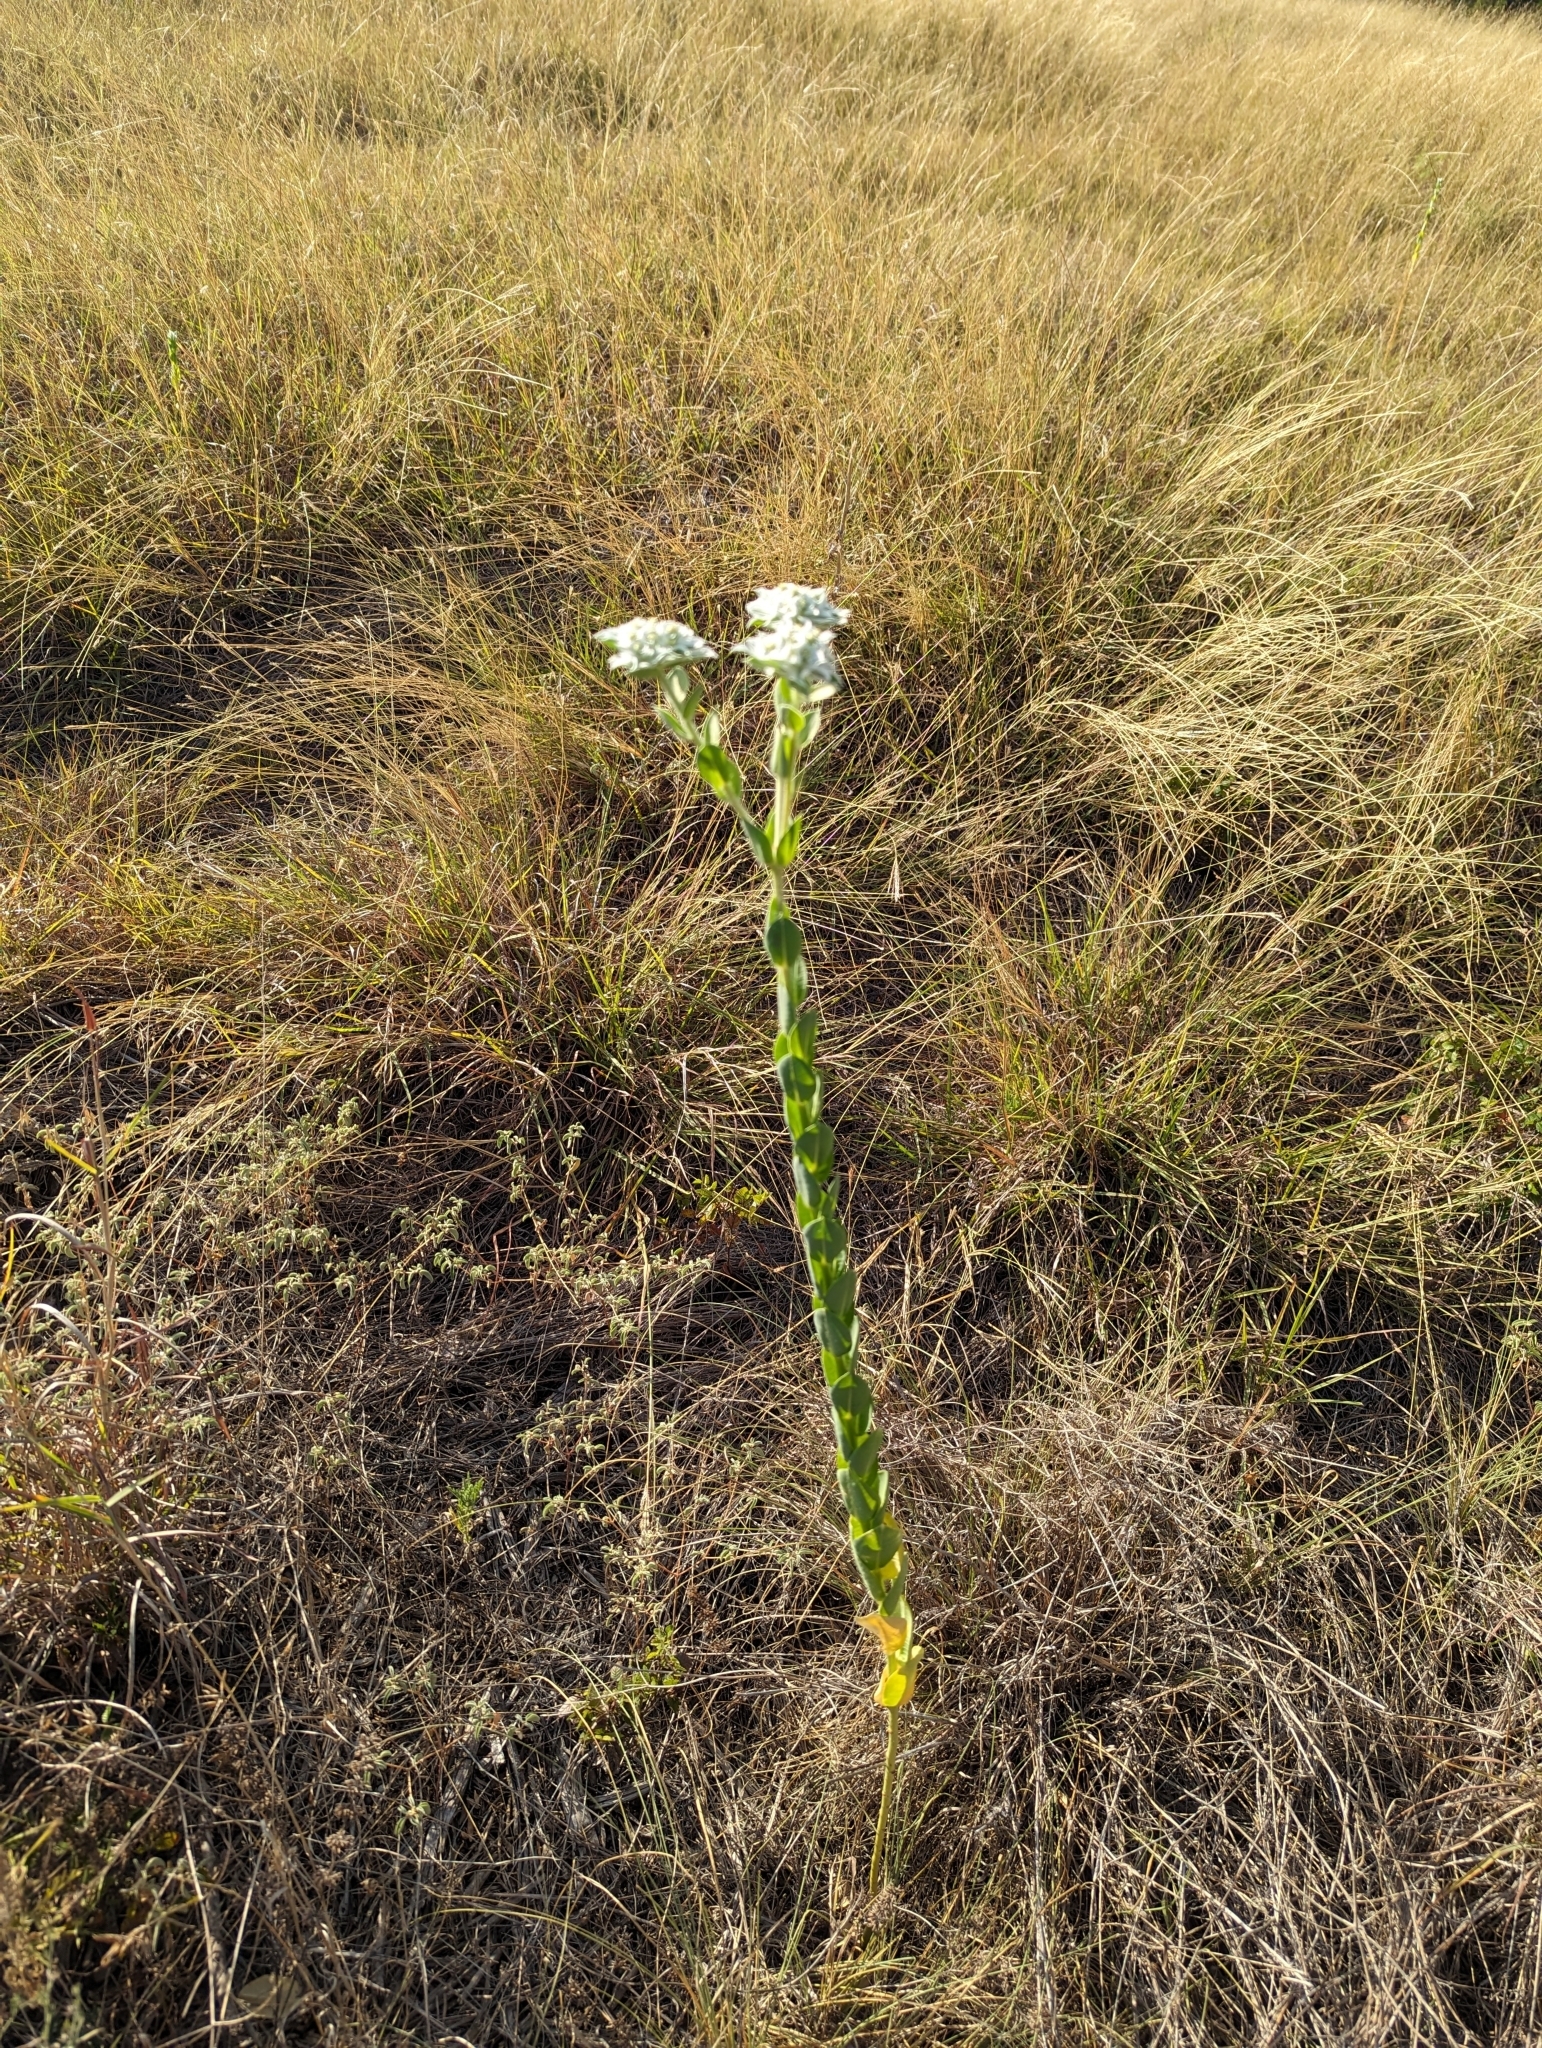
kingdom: Plantae
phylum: Tracheophyta
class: Magnoliopsida
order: Malpighiales
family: Euphorbiaceae
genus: Euphorbia
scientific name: Euphorbia marginata
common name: Ghostweed
